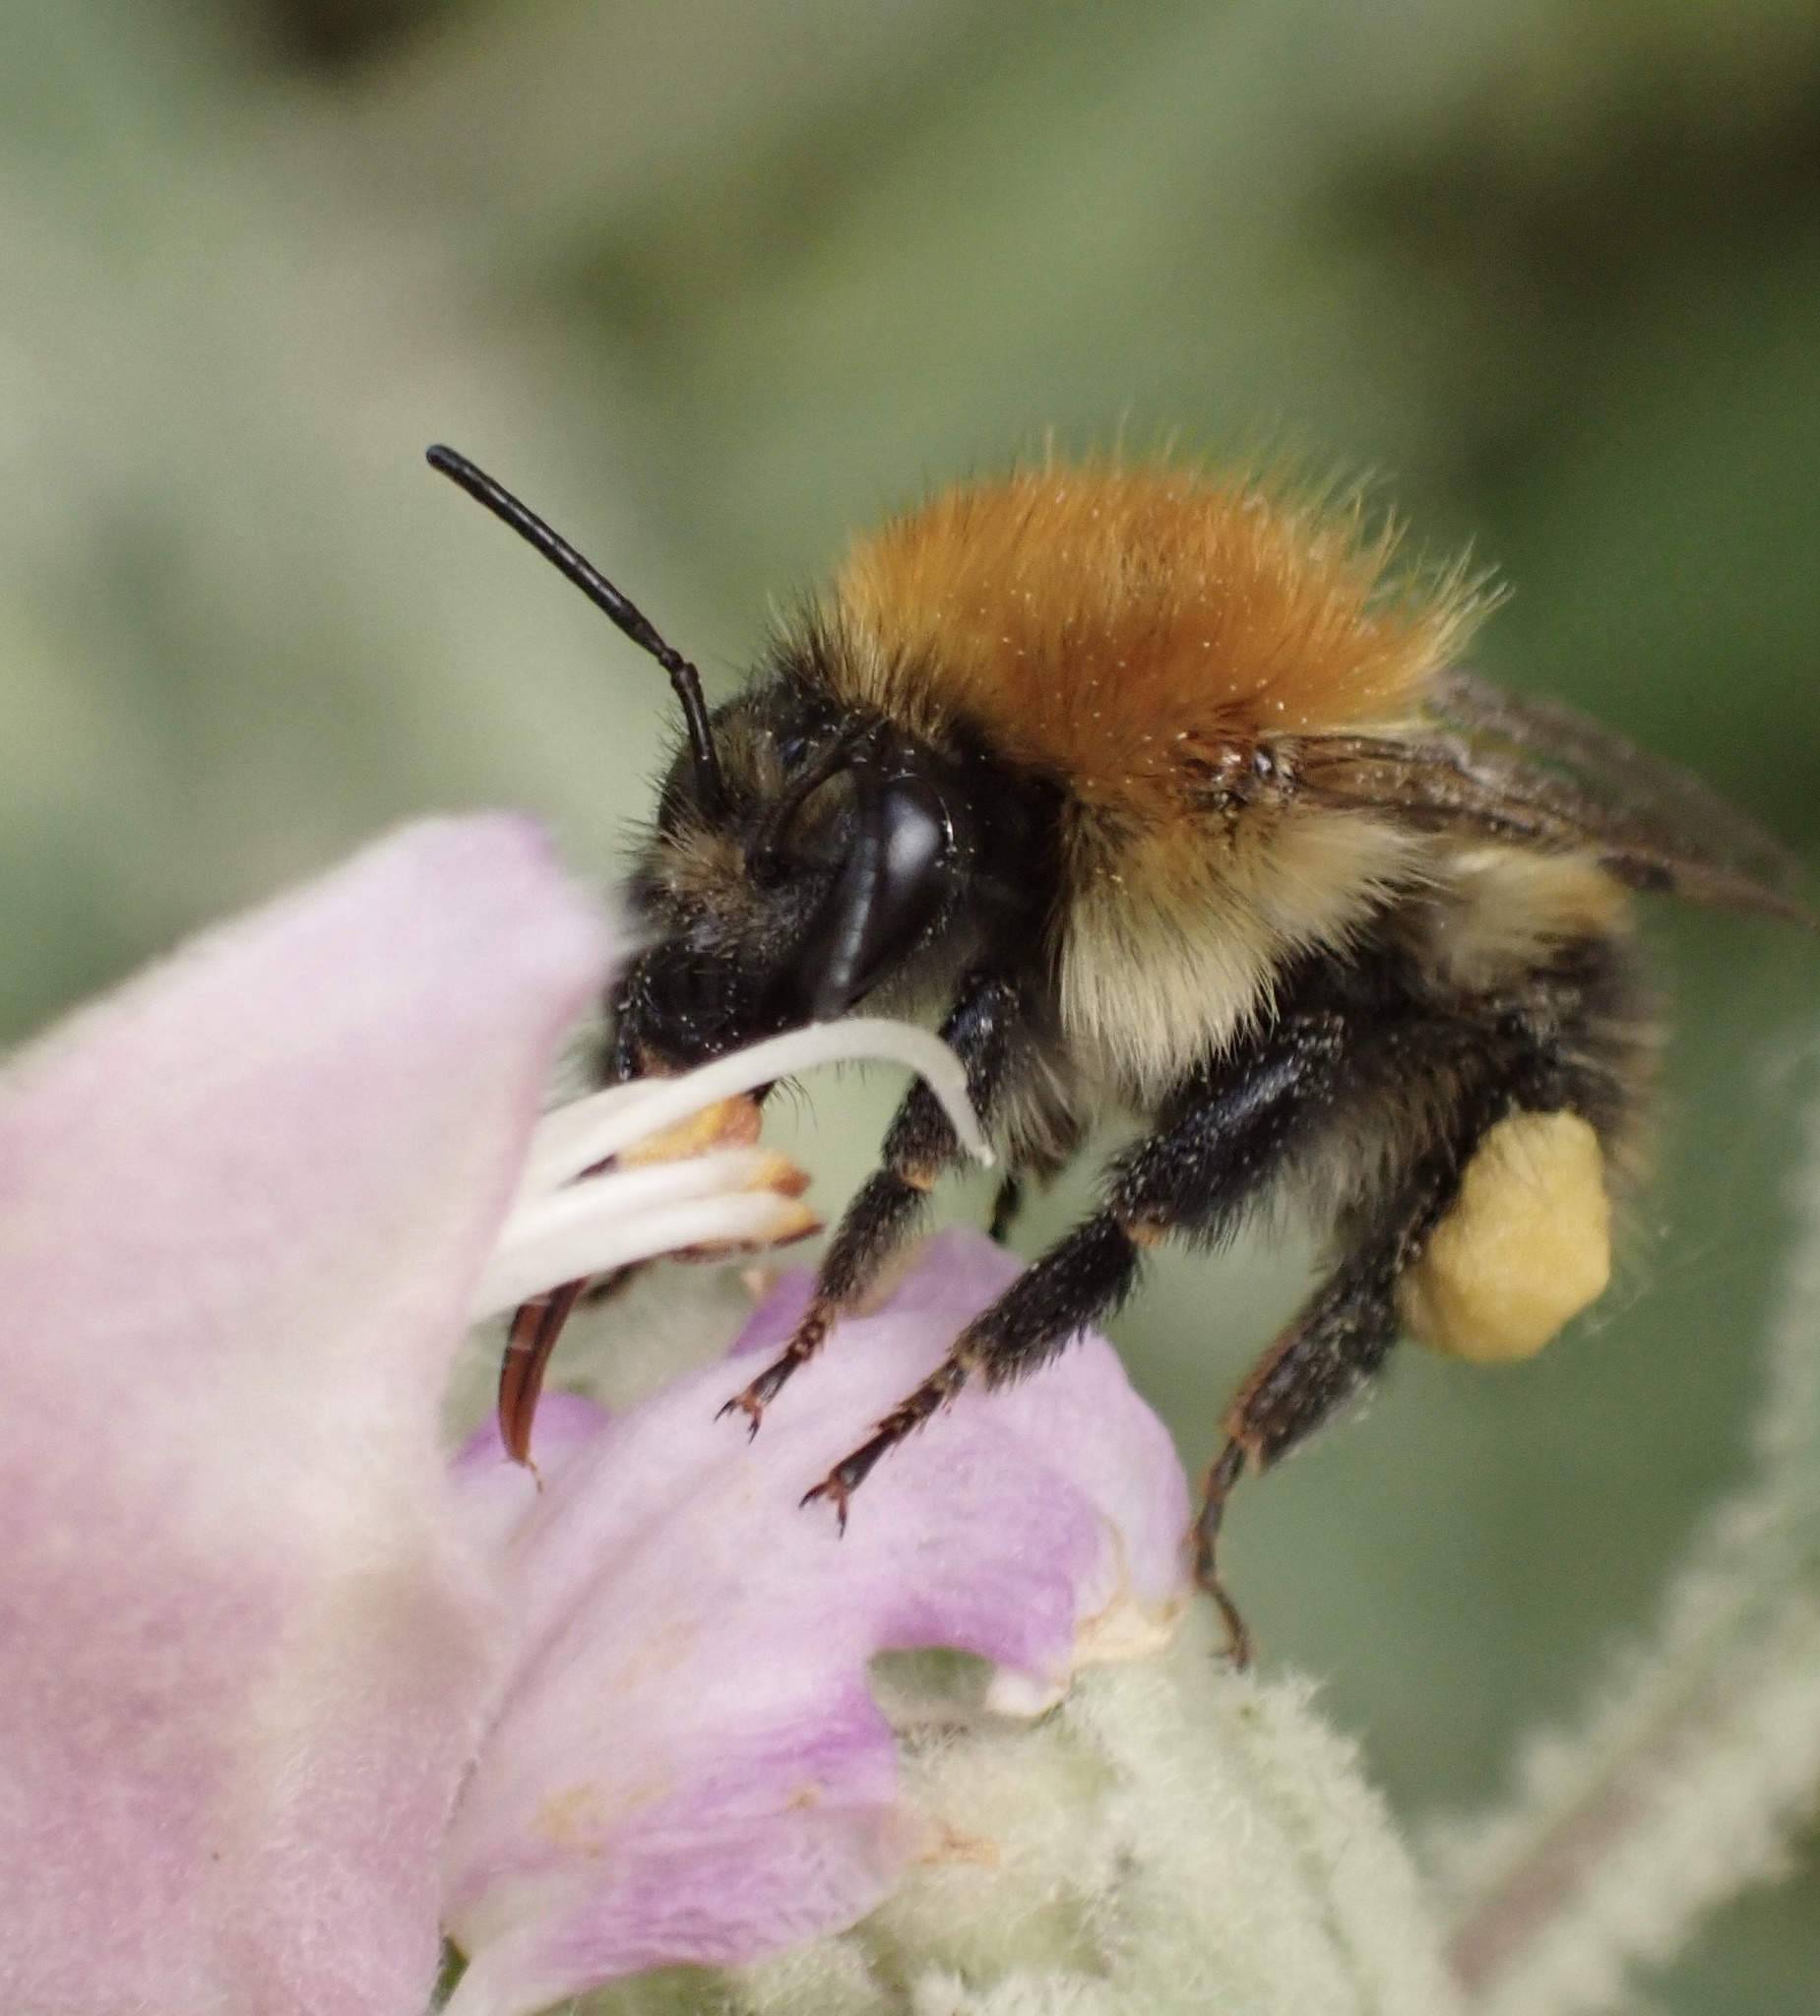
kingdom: Animalia
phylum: Arthropoda
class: Insecta
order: Hymenoptera
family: Apidae
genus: Bombus
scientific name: Bombus pascuorum
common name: Common carder bee
